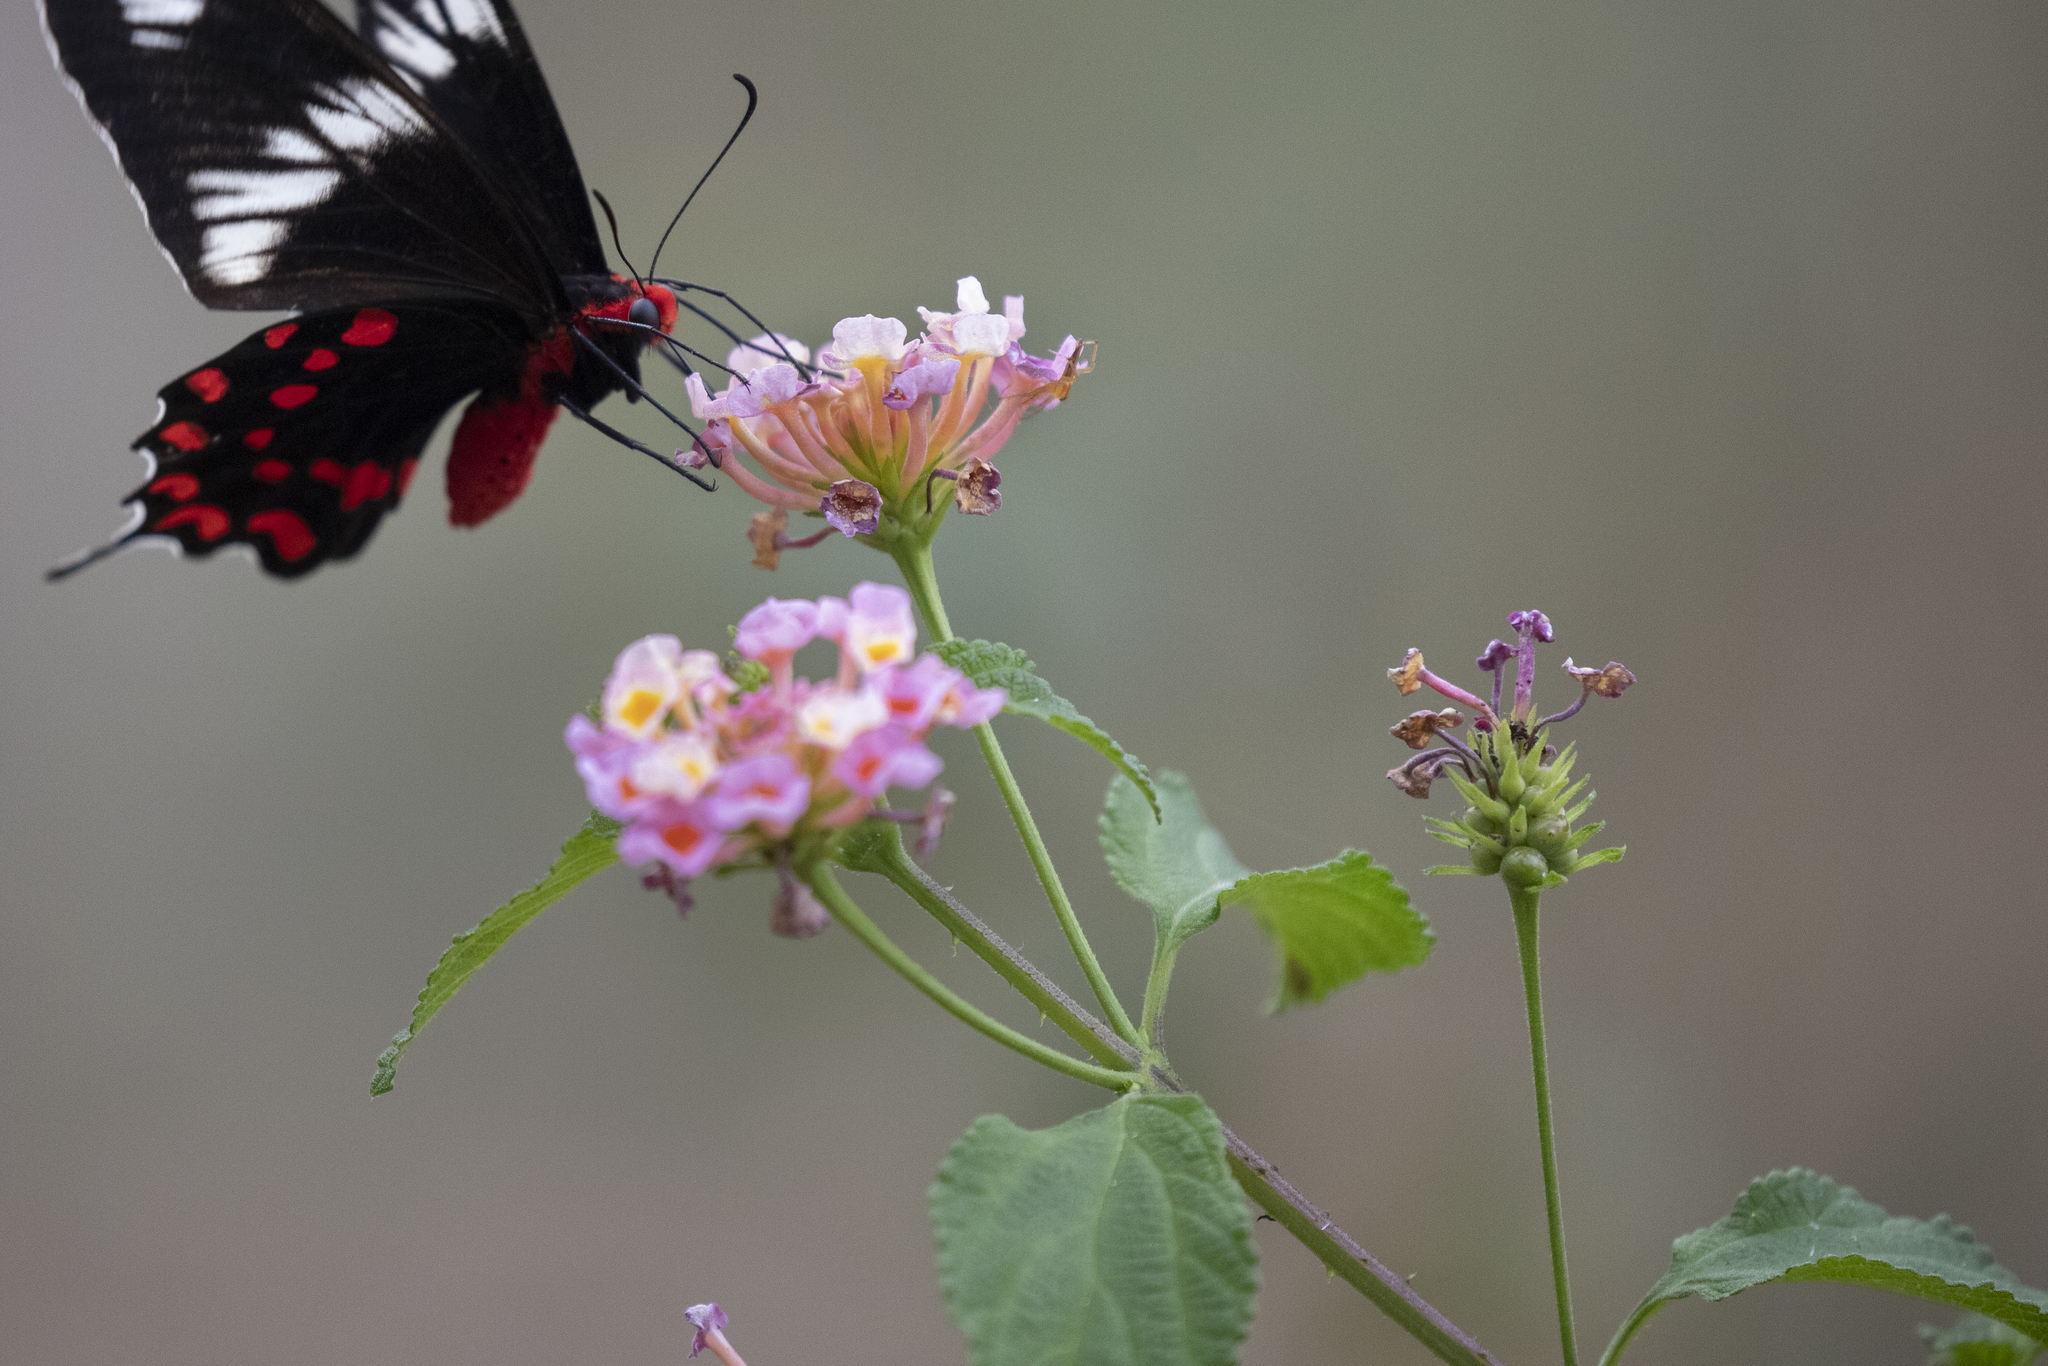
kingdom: Plantae
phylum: Tracheophyta
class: Magnoliopsida
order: Lamiales
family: Verbenaceae
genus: Lantana
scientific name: Lantana camara
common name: Lantana
